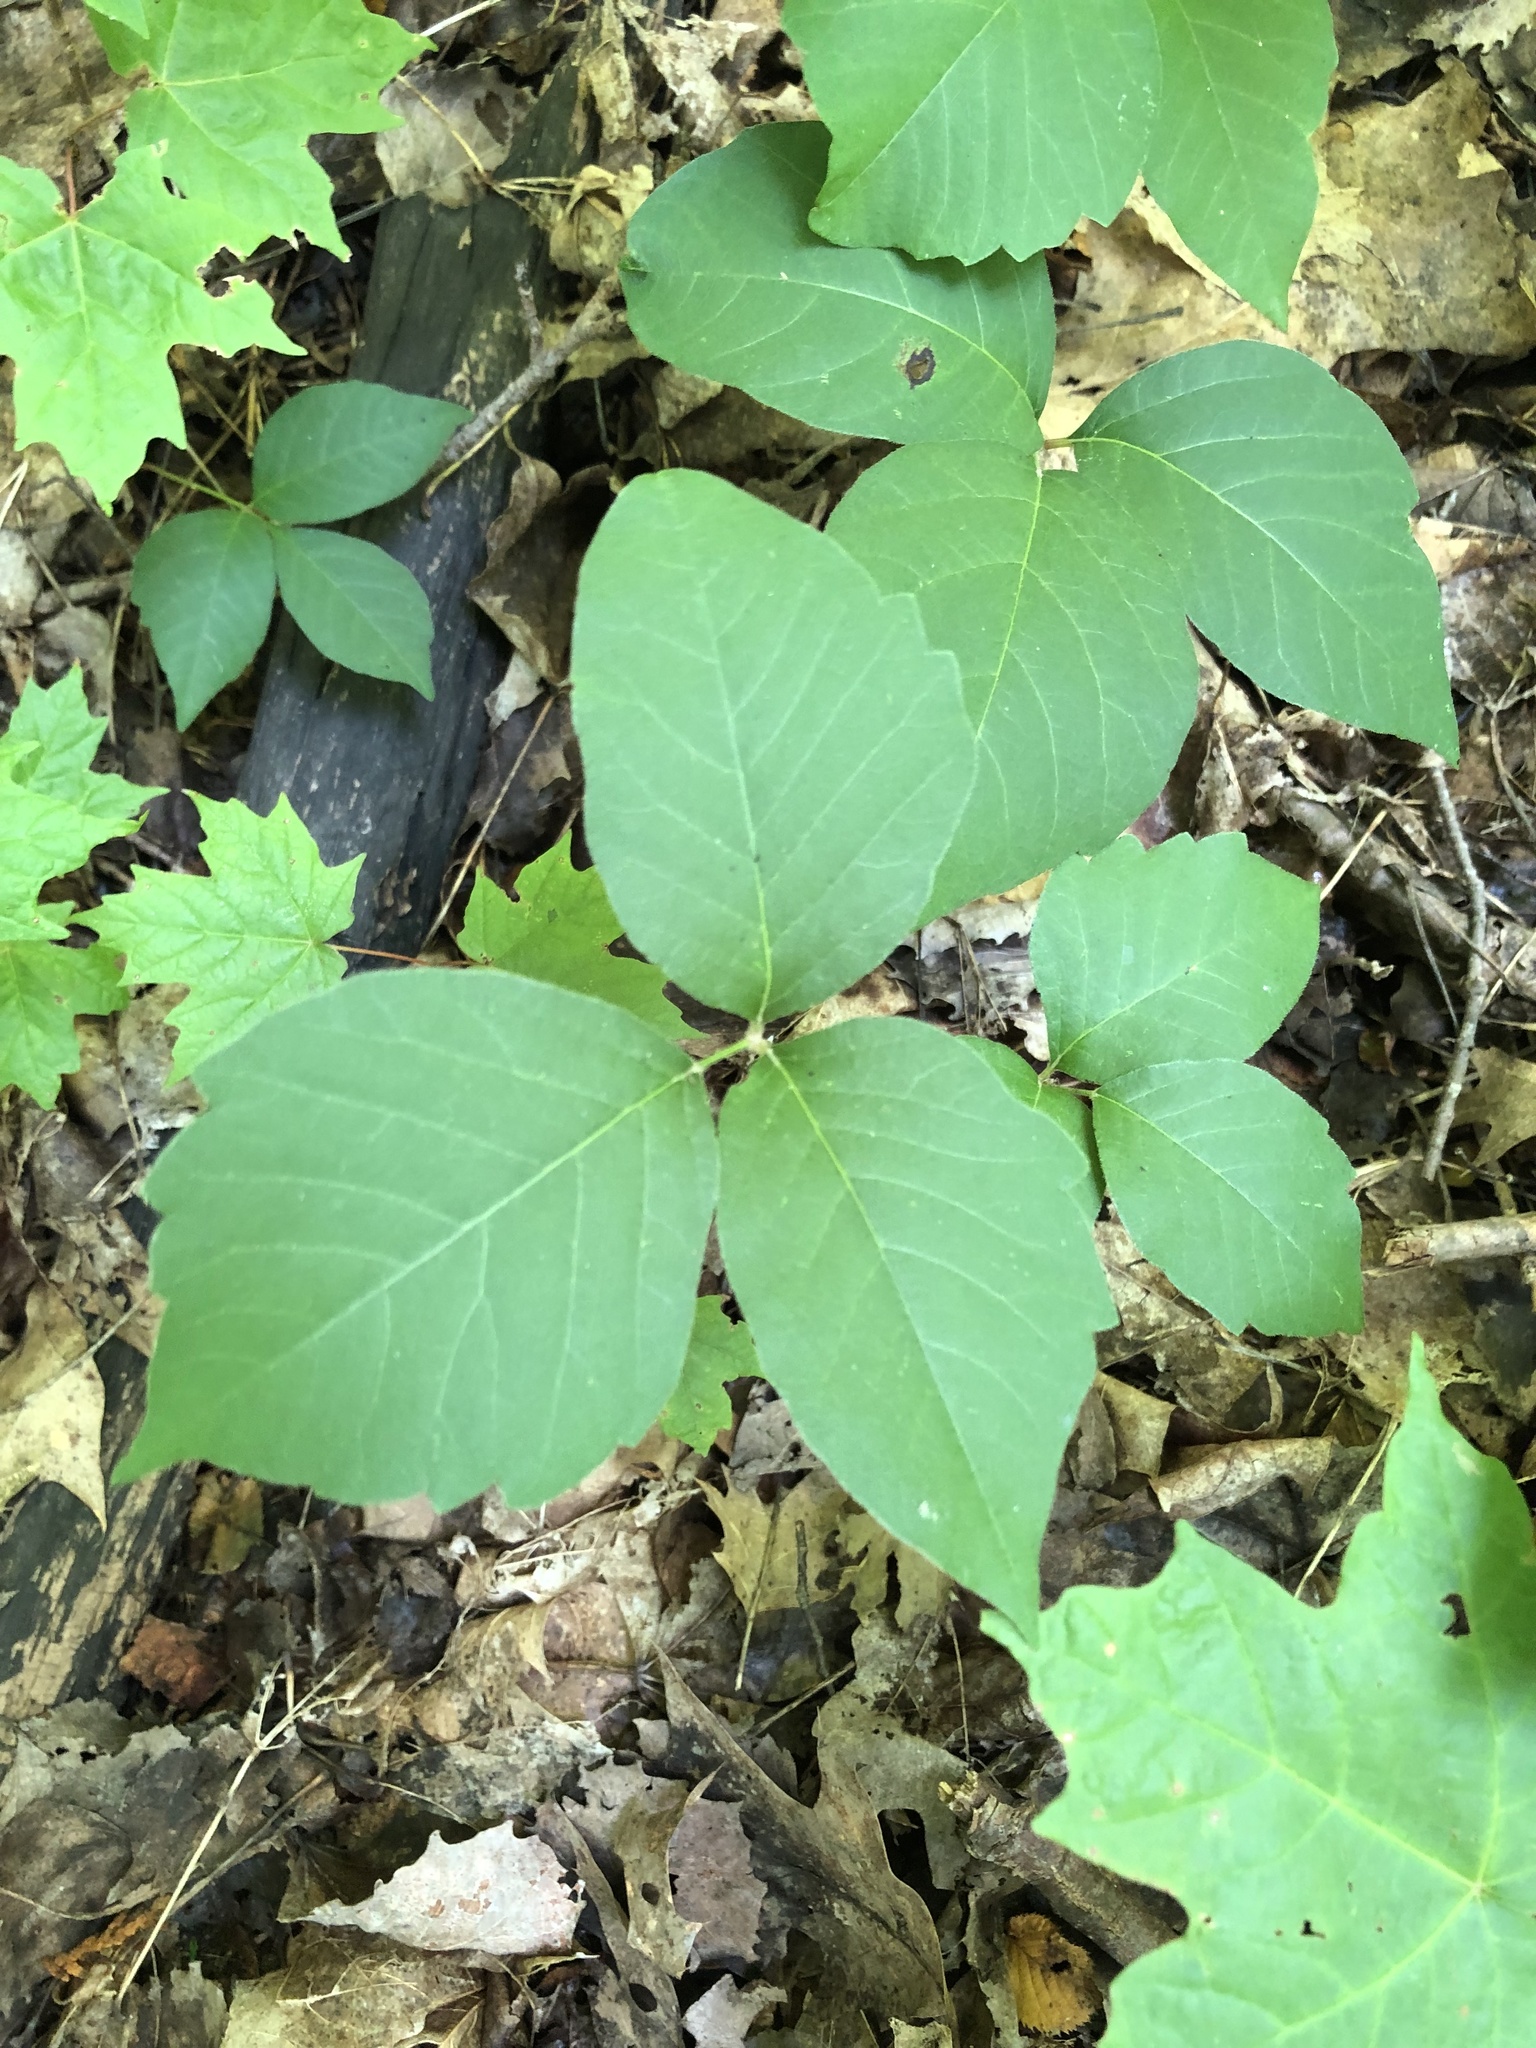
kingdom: Plantae
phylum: Tracheophyta
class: Magnoliopsida
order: Sapindales
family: Anacardiaceae
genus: Toxicodendron
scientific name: Toxicodendron rydbergii
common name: Rydberg's poison-ivy
